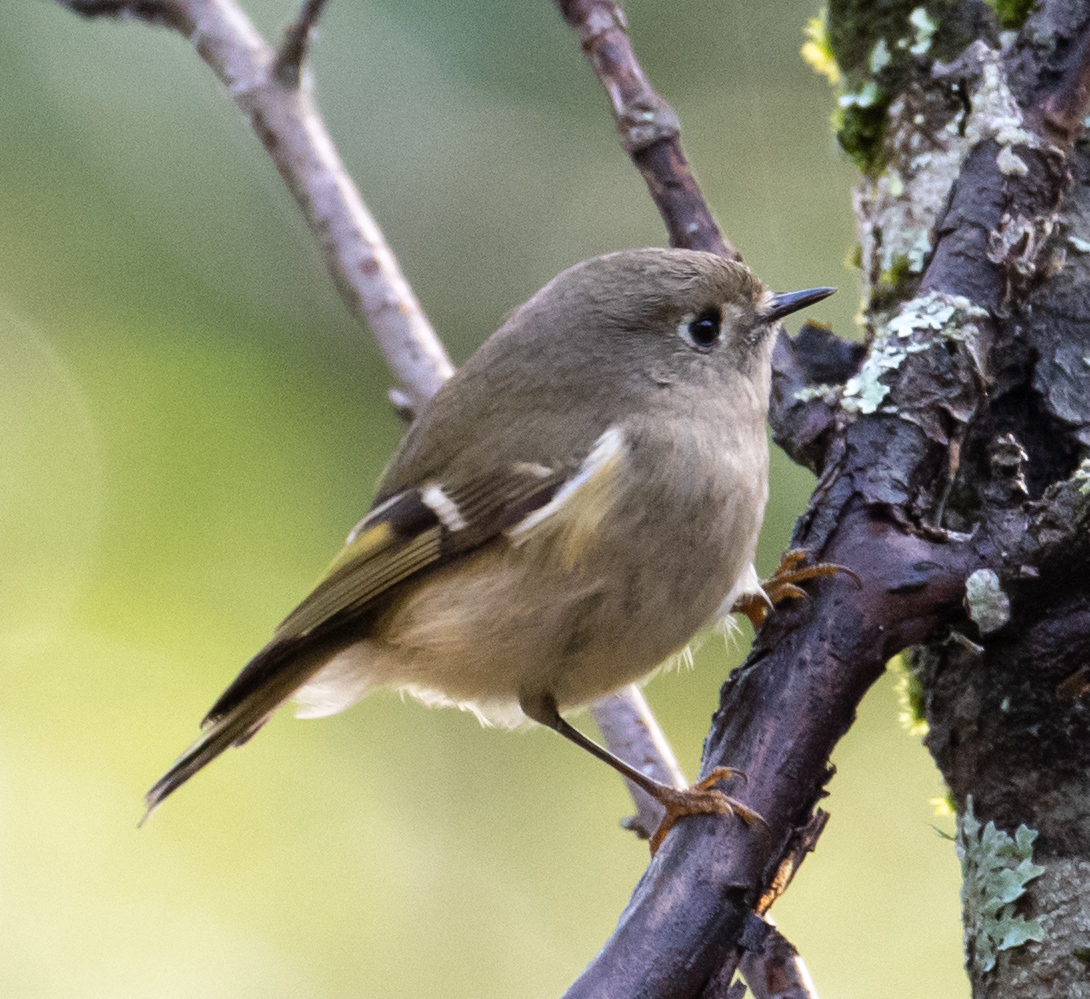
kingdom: Animalia
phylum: Chordata
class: Aves
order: Passeriformes
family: Regulidae
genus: Regulus
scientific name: Regulus calendula
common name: Ruby-crowned kinglet
